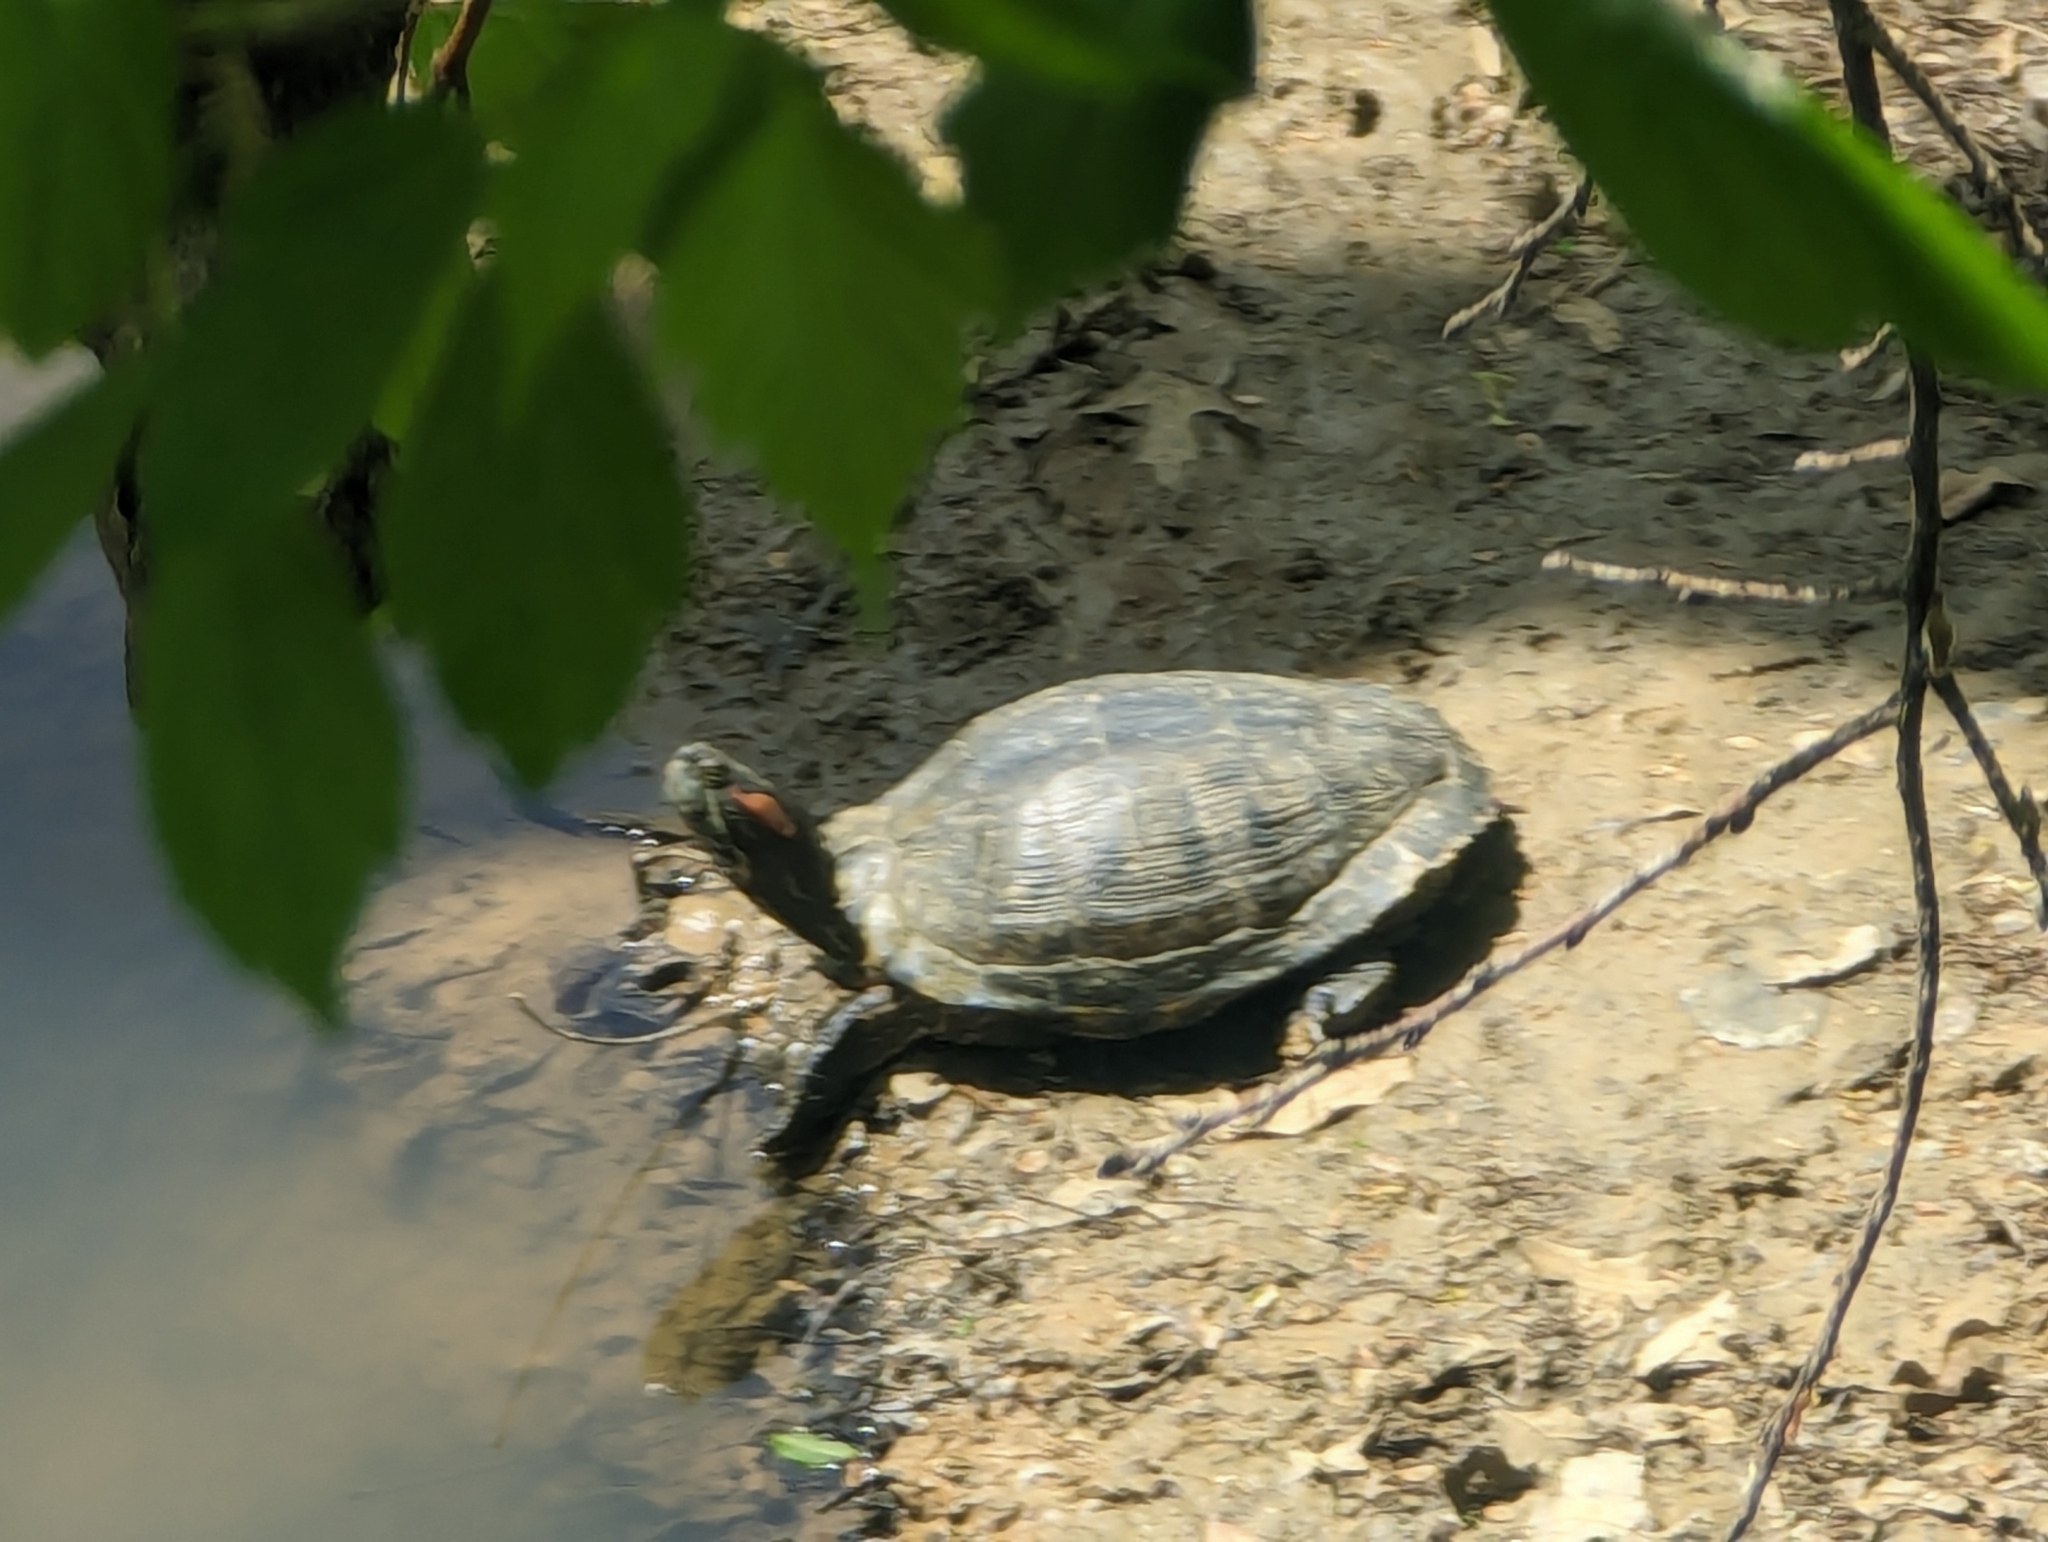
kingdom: Animalia
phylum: Chordata
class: Testudines
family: Emydidae
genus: Trachemys
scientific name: Trachemys scripta
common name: Slider
